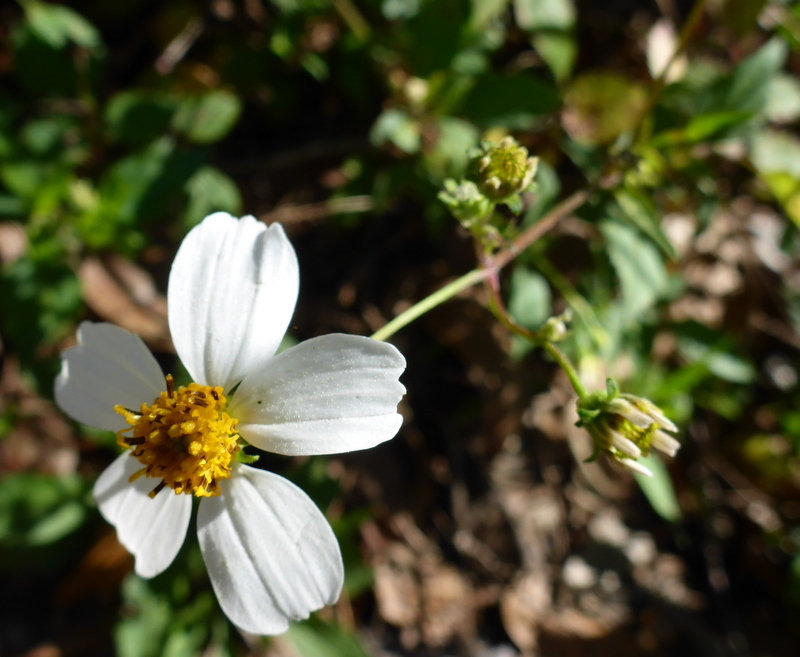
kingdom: Plantae
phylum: Tracheophyta
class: Magnoliopsida
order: Asterales
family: Asteraceae
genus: Bidens
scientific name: Bidens alba
